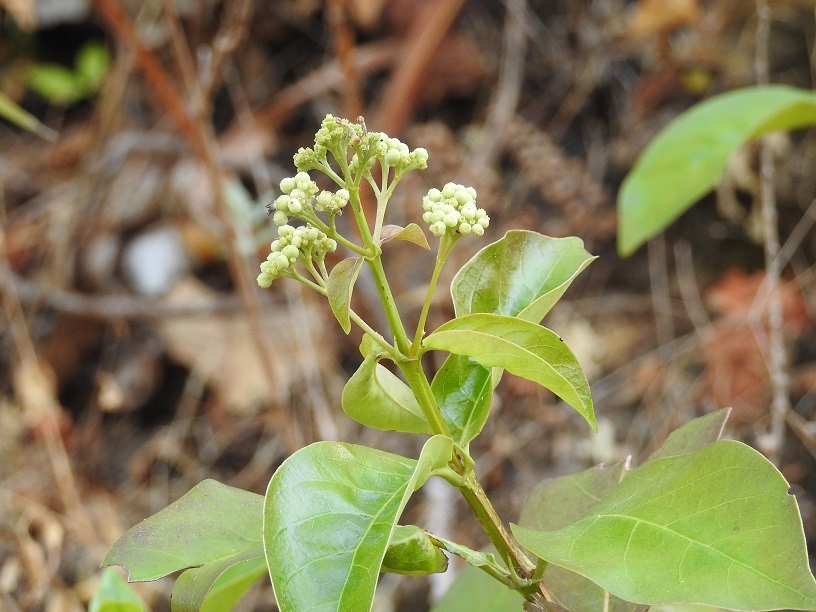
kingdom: Plantae
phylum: Tracheophyta
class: Magnoliopsida
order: Gentianales
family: Rubiaceae
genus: Rogiera
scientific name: Rogiera amoena
